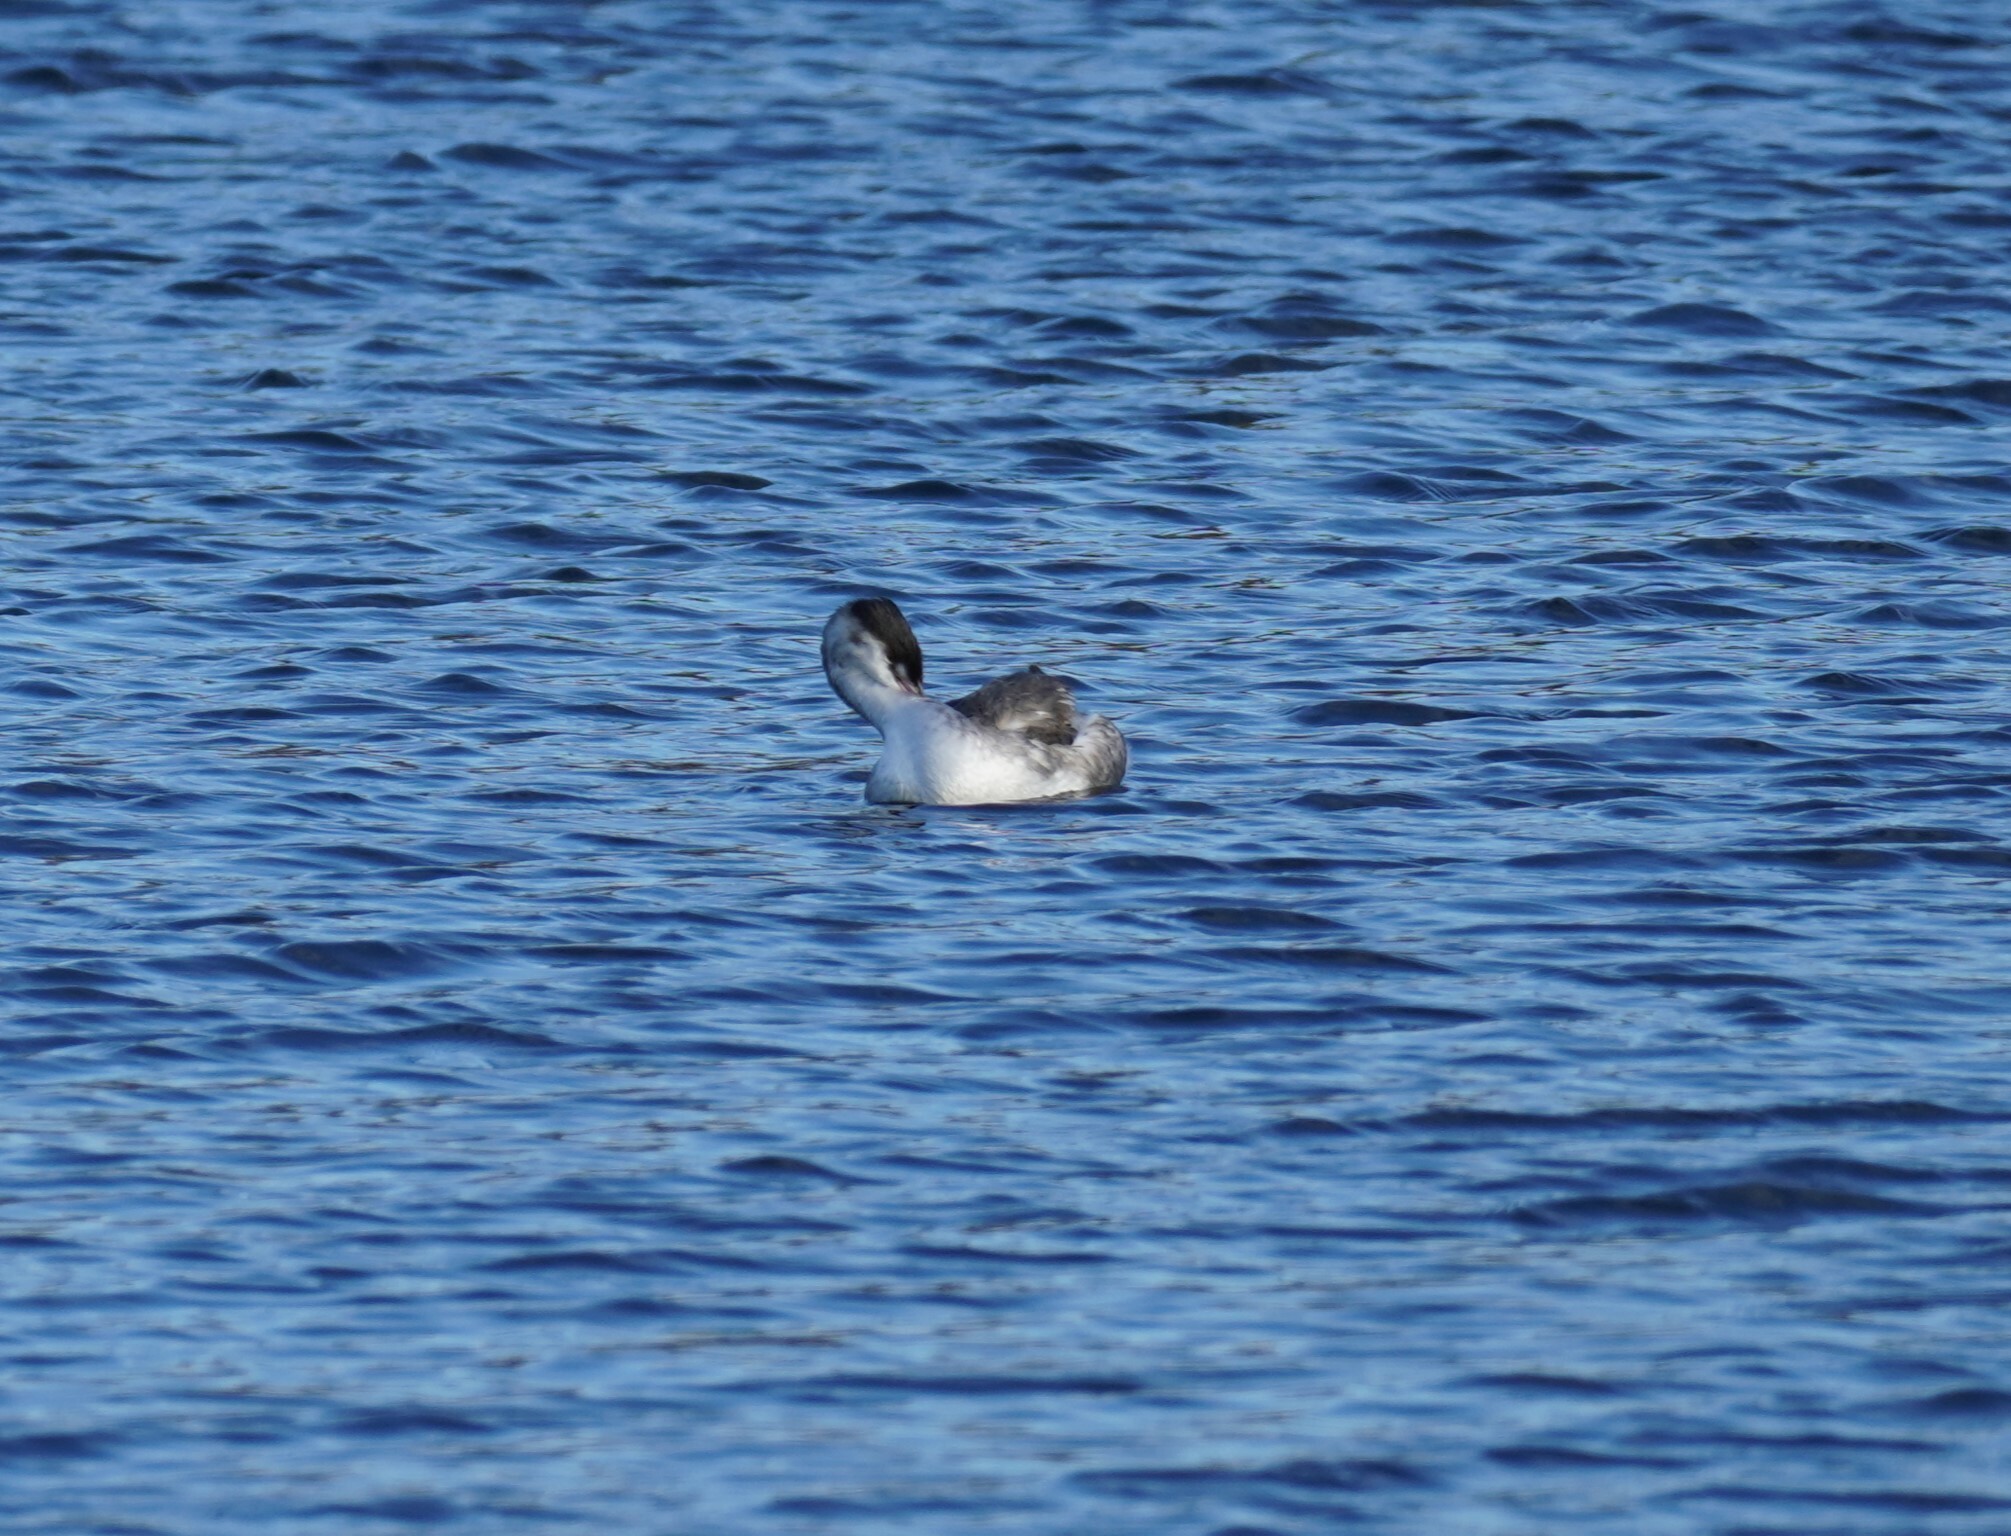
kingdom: Animalia
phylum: Chordata
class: Aves
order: Podicipediformes
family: Podicipedidae
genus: Podiceps
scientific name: Podiceps cristatus
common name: Great crested grebe
